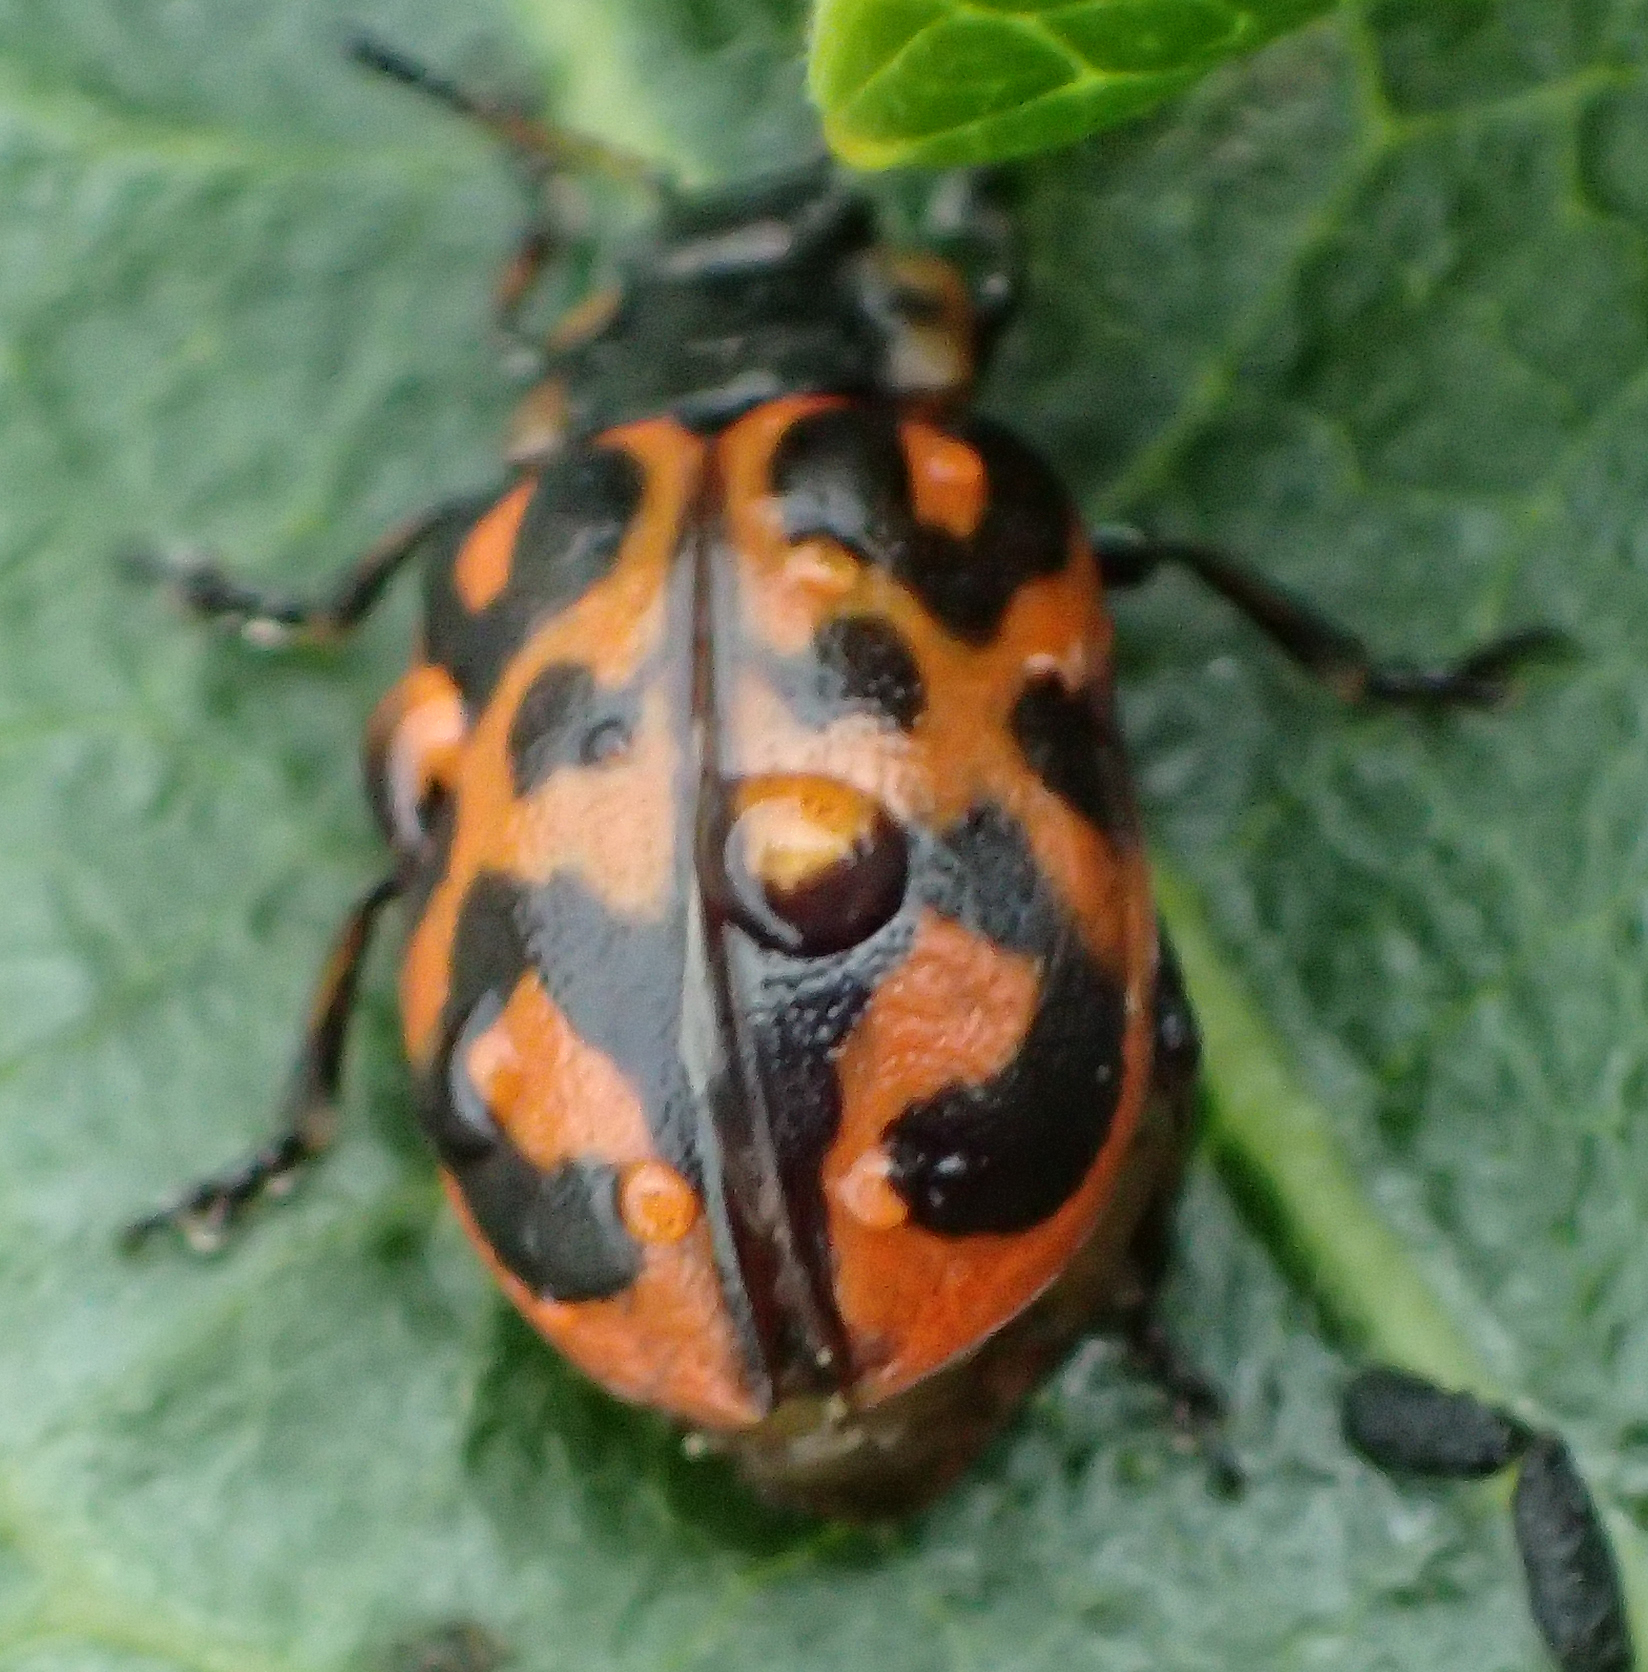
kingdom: Animalia
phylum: Arthropoda
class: Insecta
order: Coleoptera
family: Chrysomelidae
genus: Chrysomela
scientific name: Chrysomela falsa
